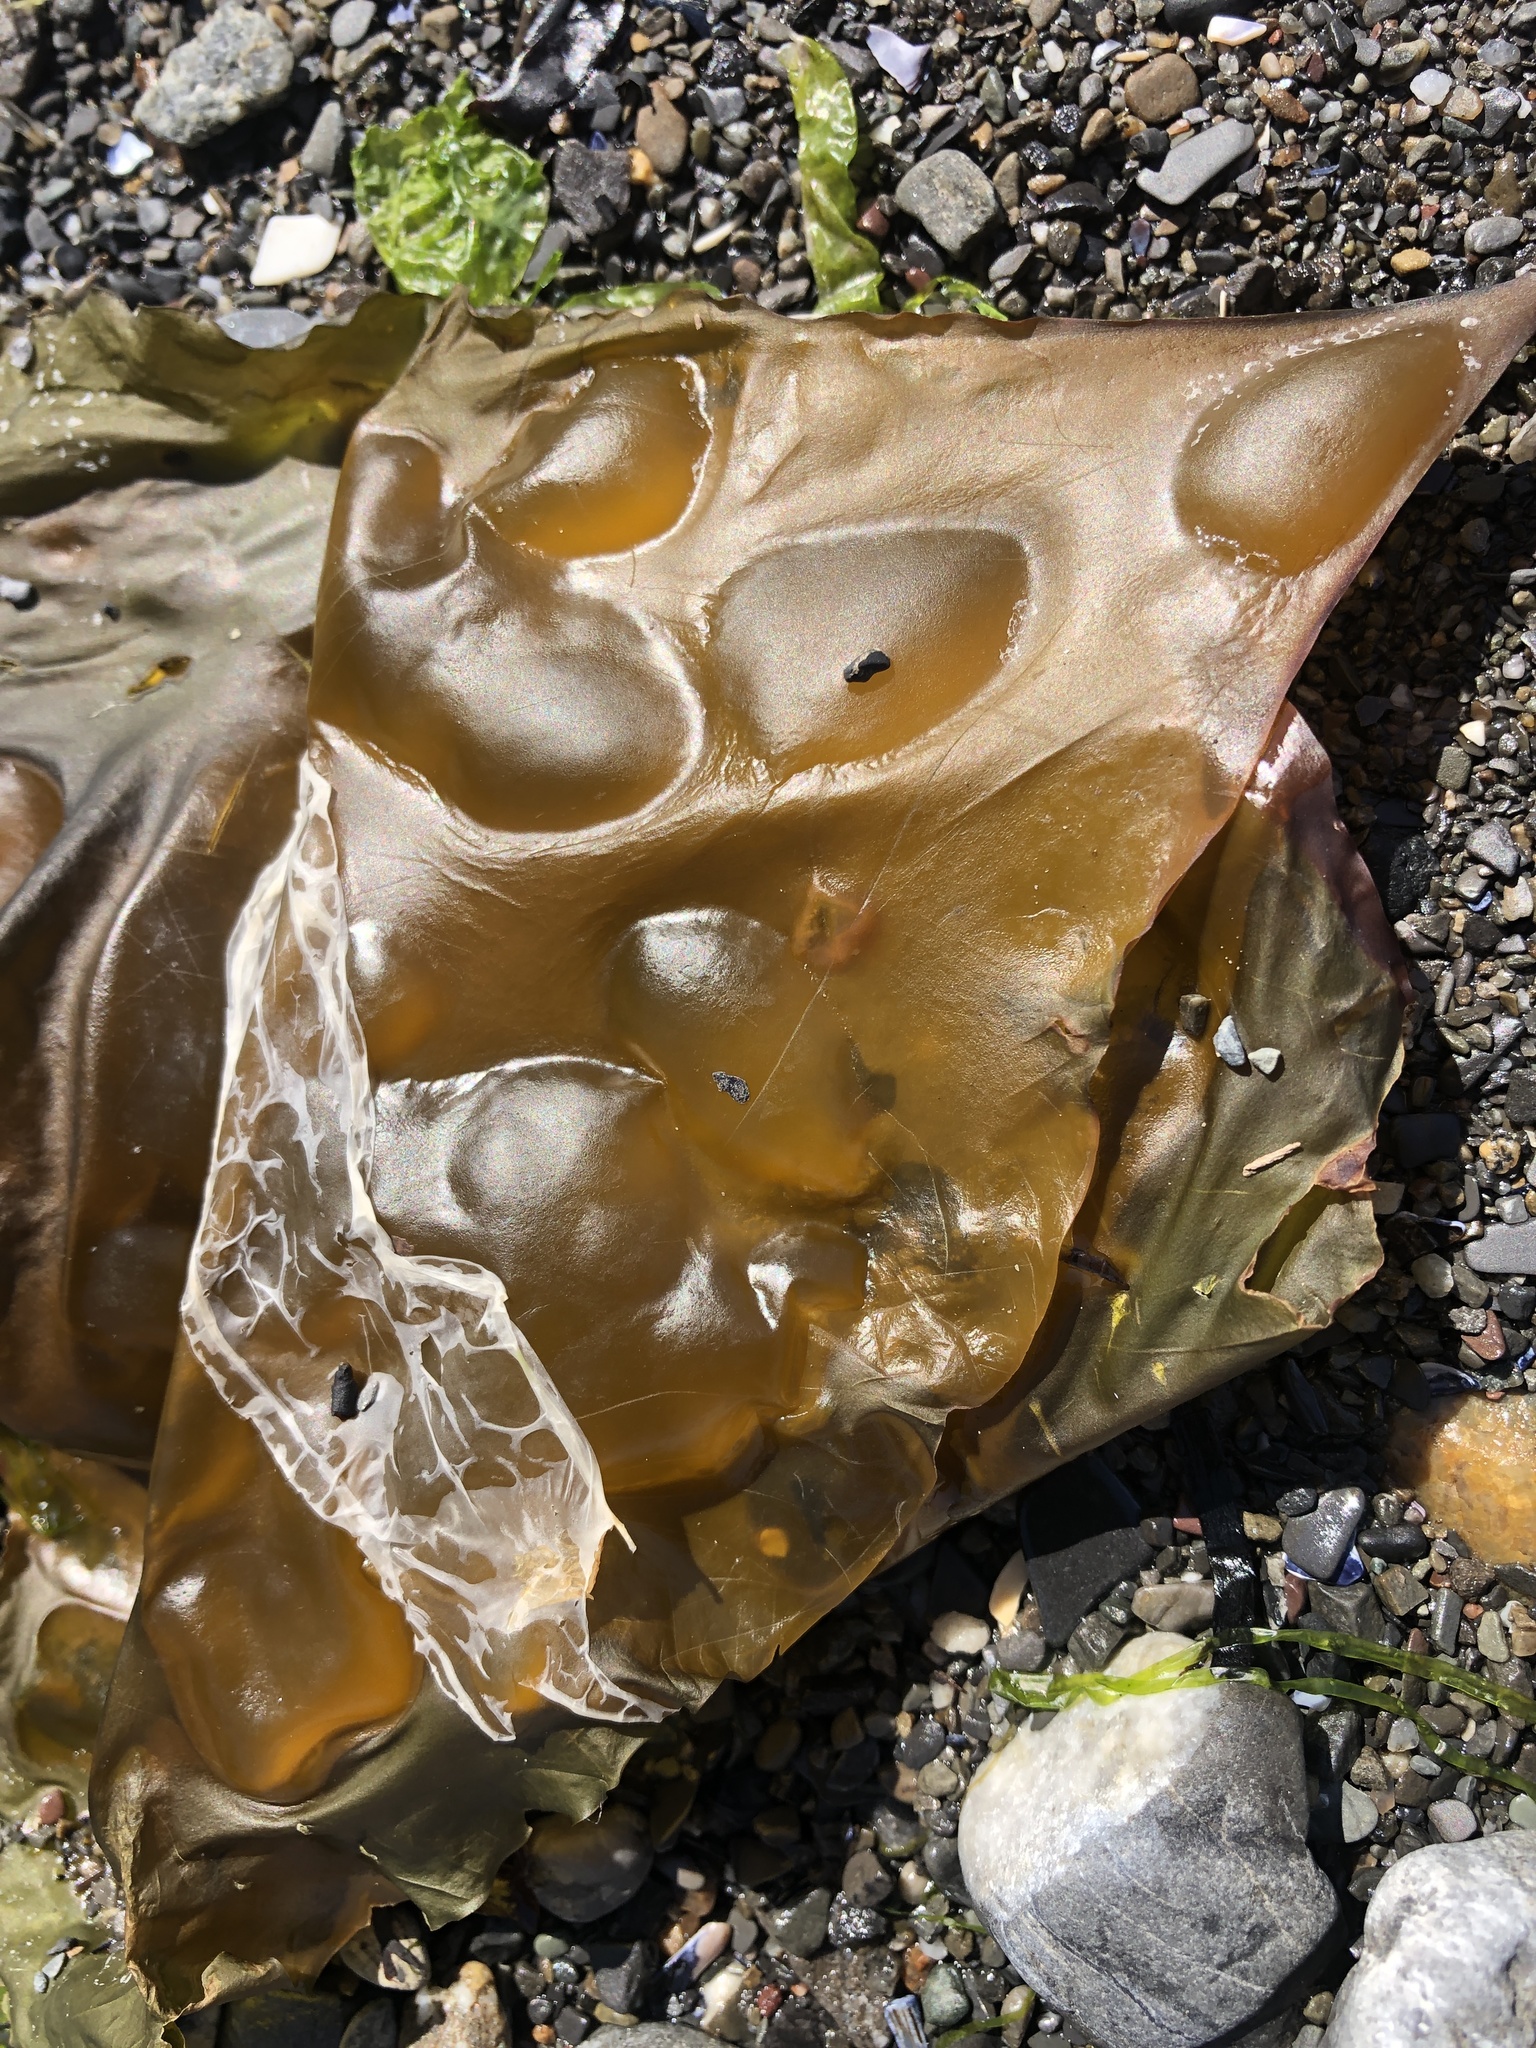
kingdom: Chromista
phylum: Ochrophyta
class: Phaeophyceae
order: Laminariales
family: Laminariaceae
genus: Saccharina
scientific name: Saccharina latissima
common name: Poor man's weather glass
